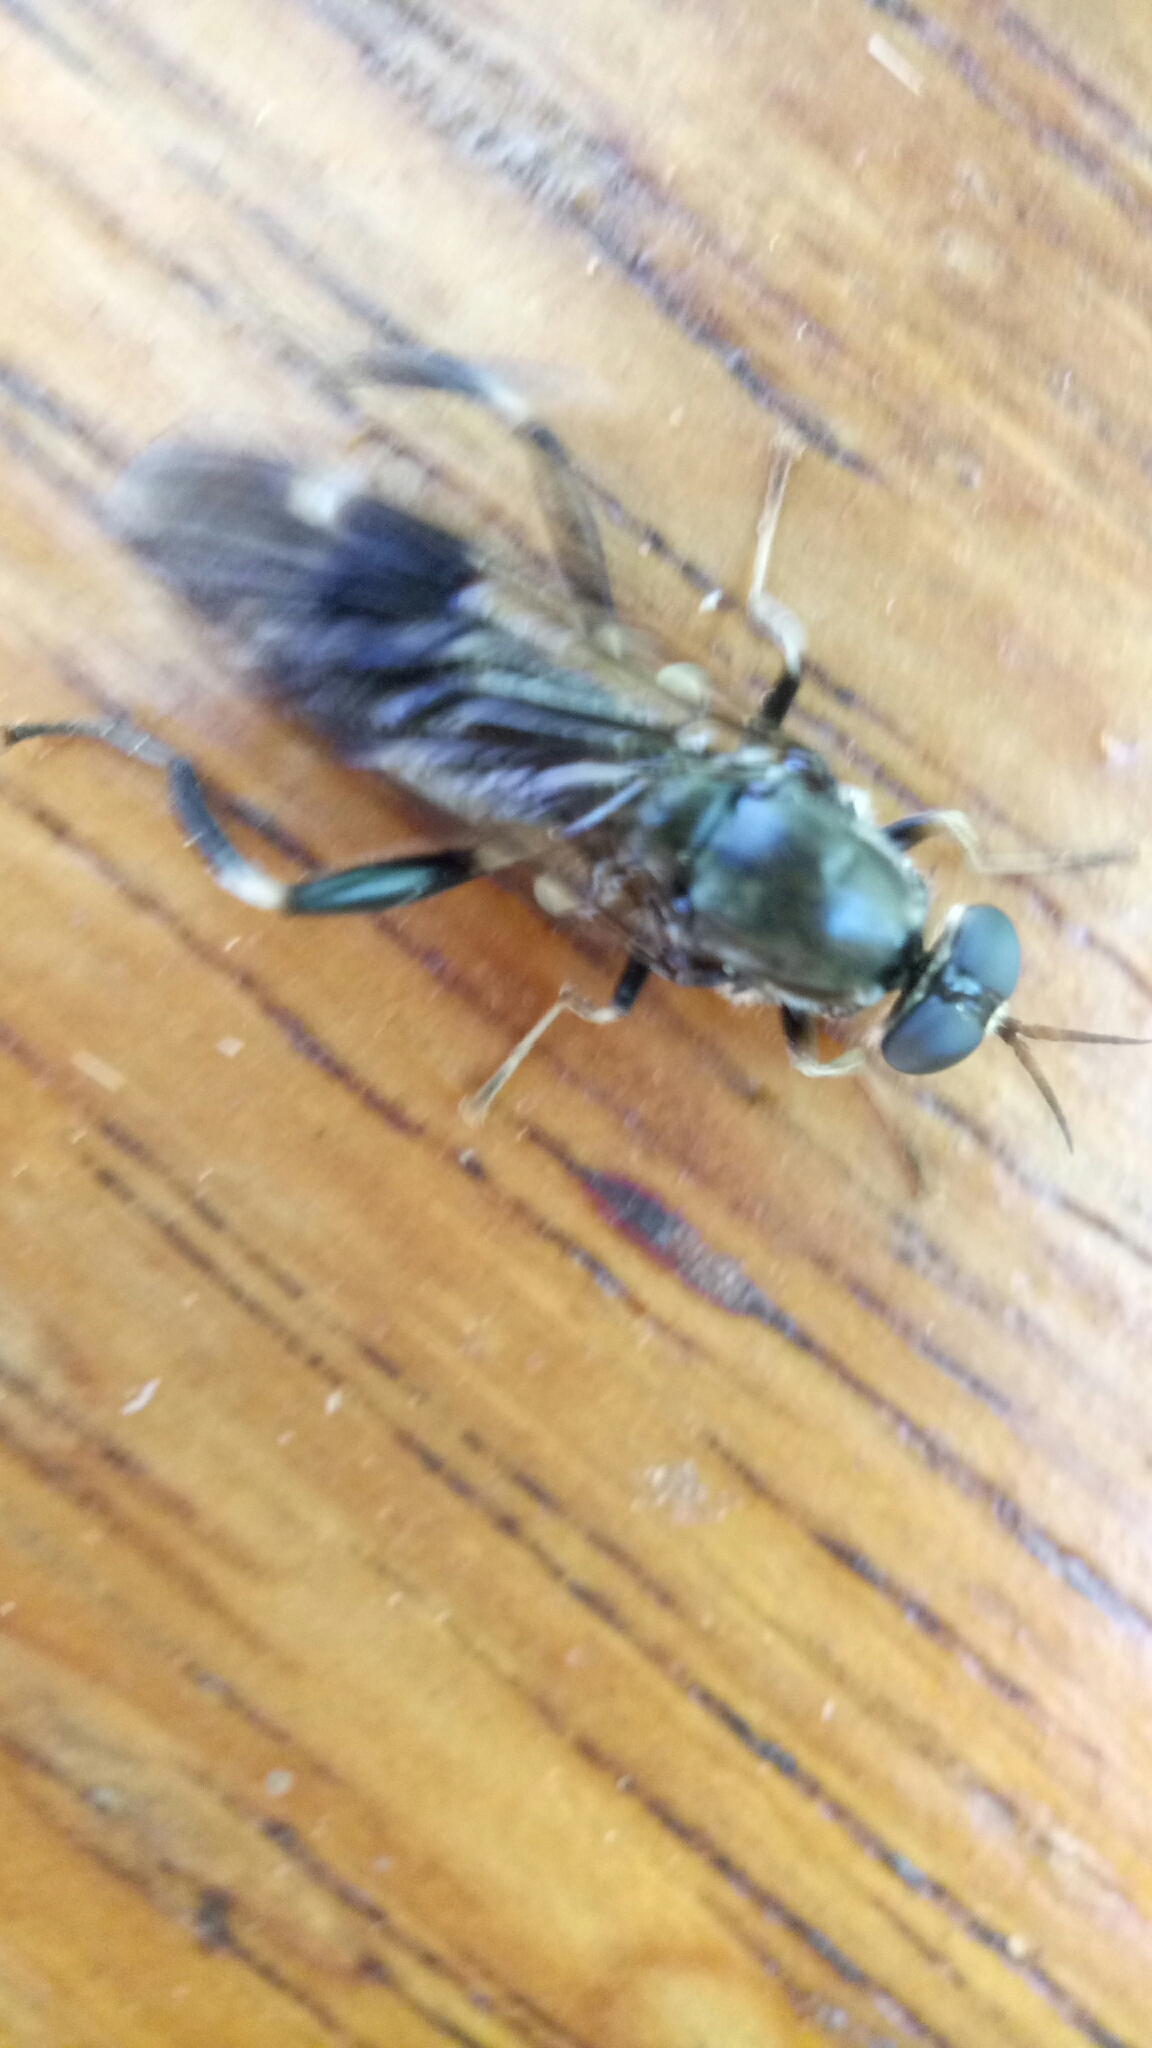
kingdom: Animalia
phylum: Arthropoda
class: Insecta
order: Diptera
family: Stratiomyidae
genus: Exaireta
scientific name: Exaireta spinigera
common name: Blue soldier fly
